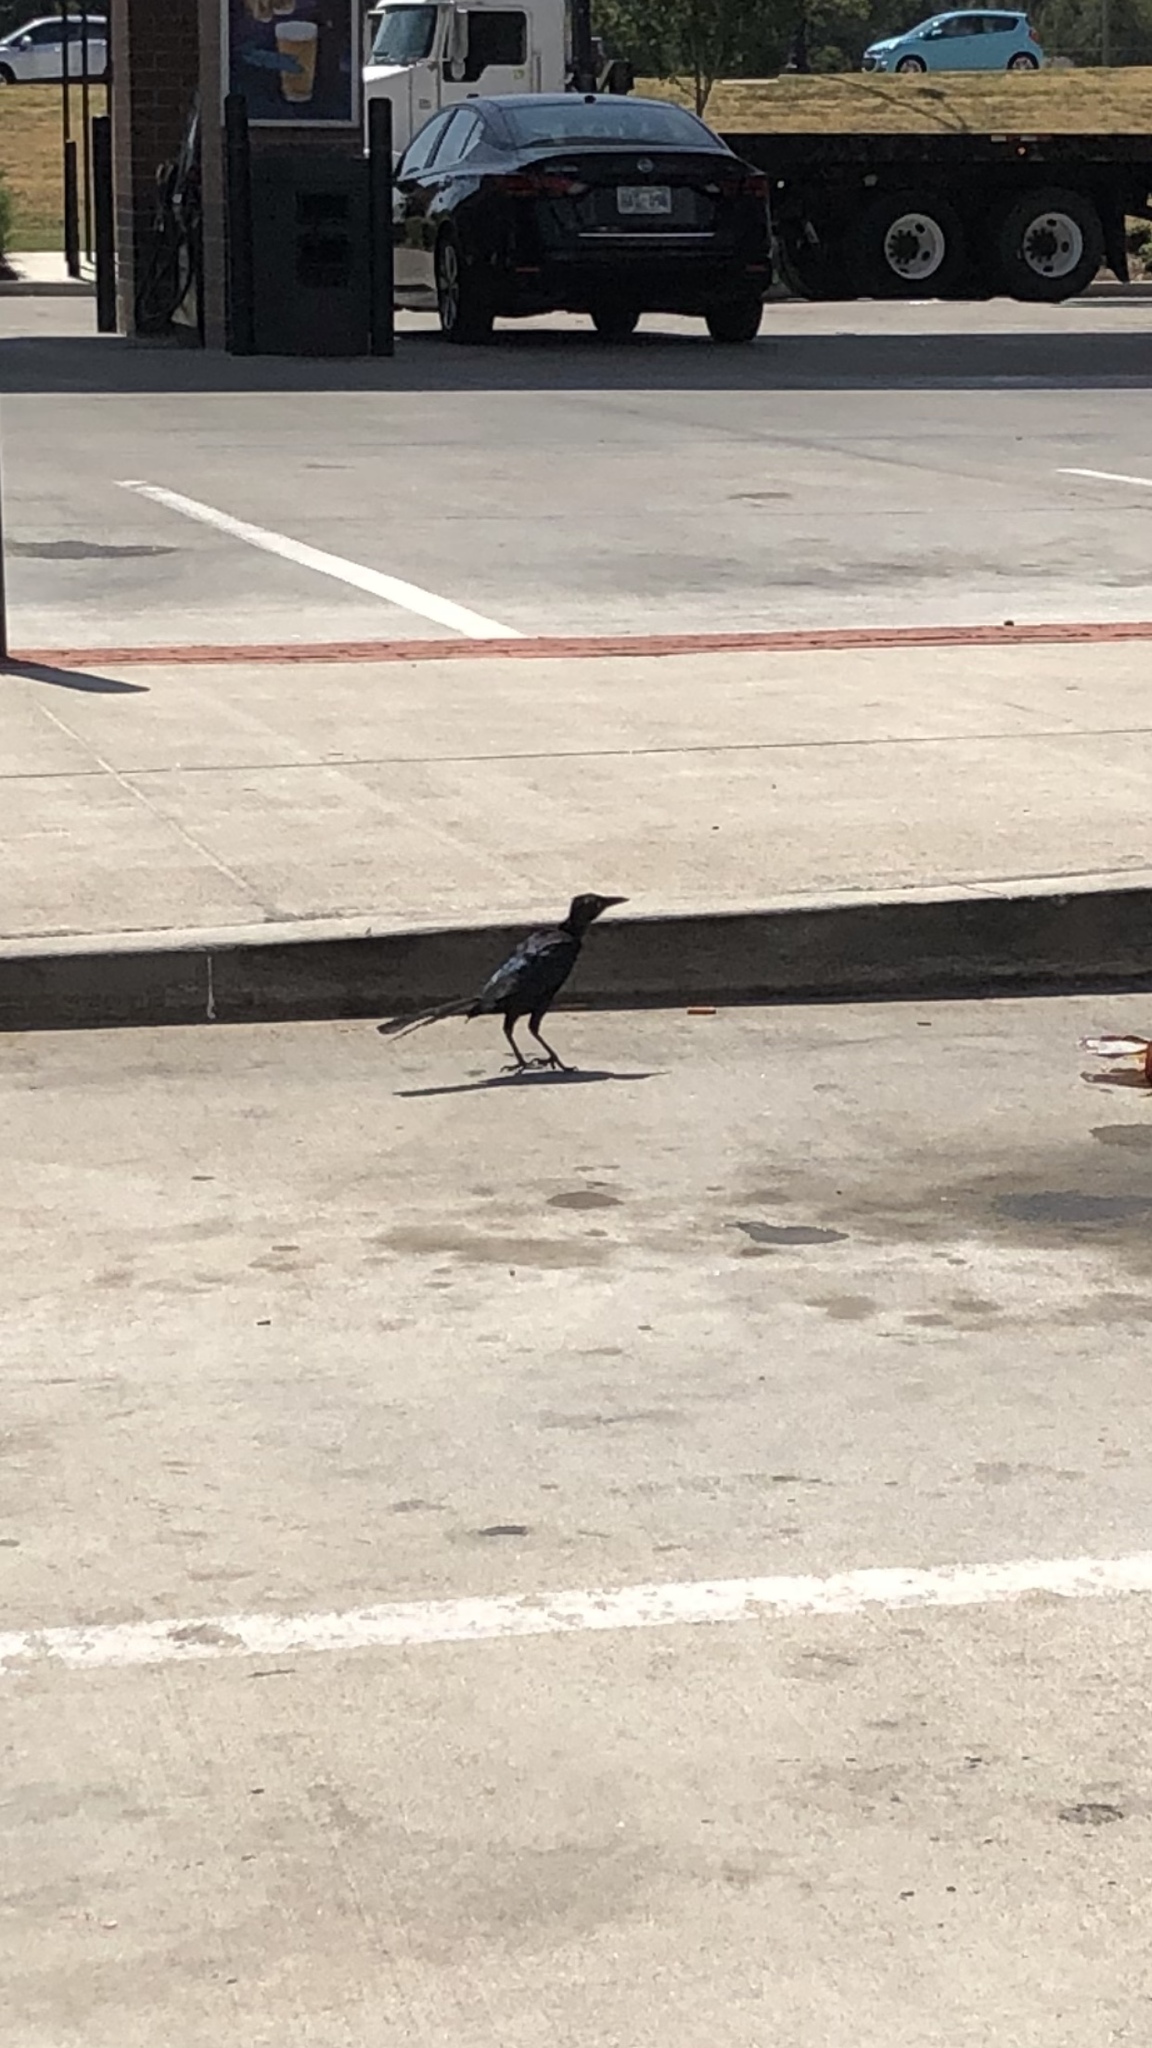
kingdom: Animalia
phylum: Chordata
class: Aves
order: Passeriformes
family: Icteridae
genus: Quiscalus
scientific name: Quiscalus mexicanus
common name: Great-tailed grackle
